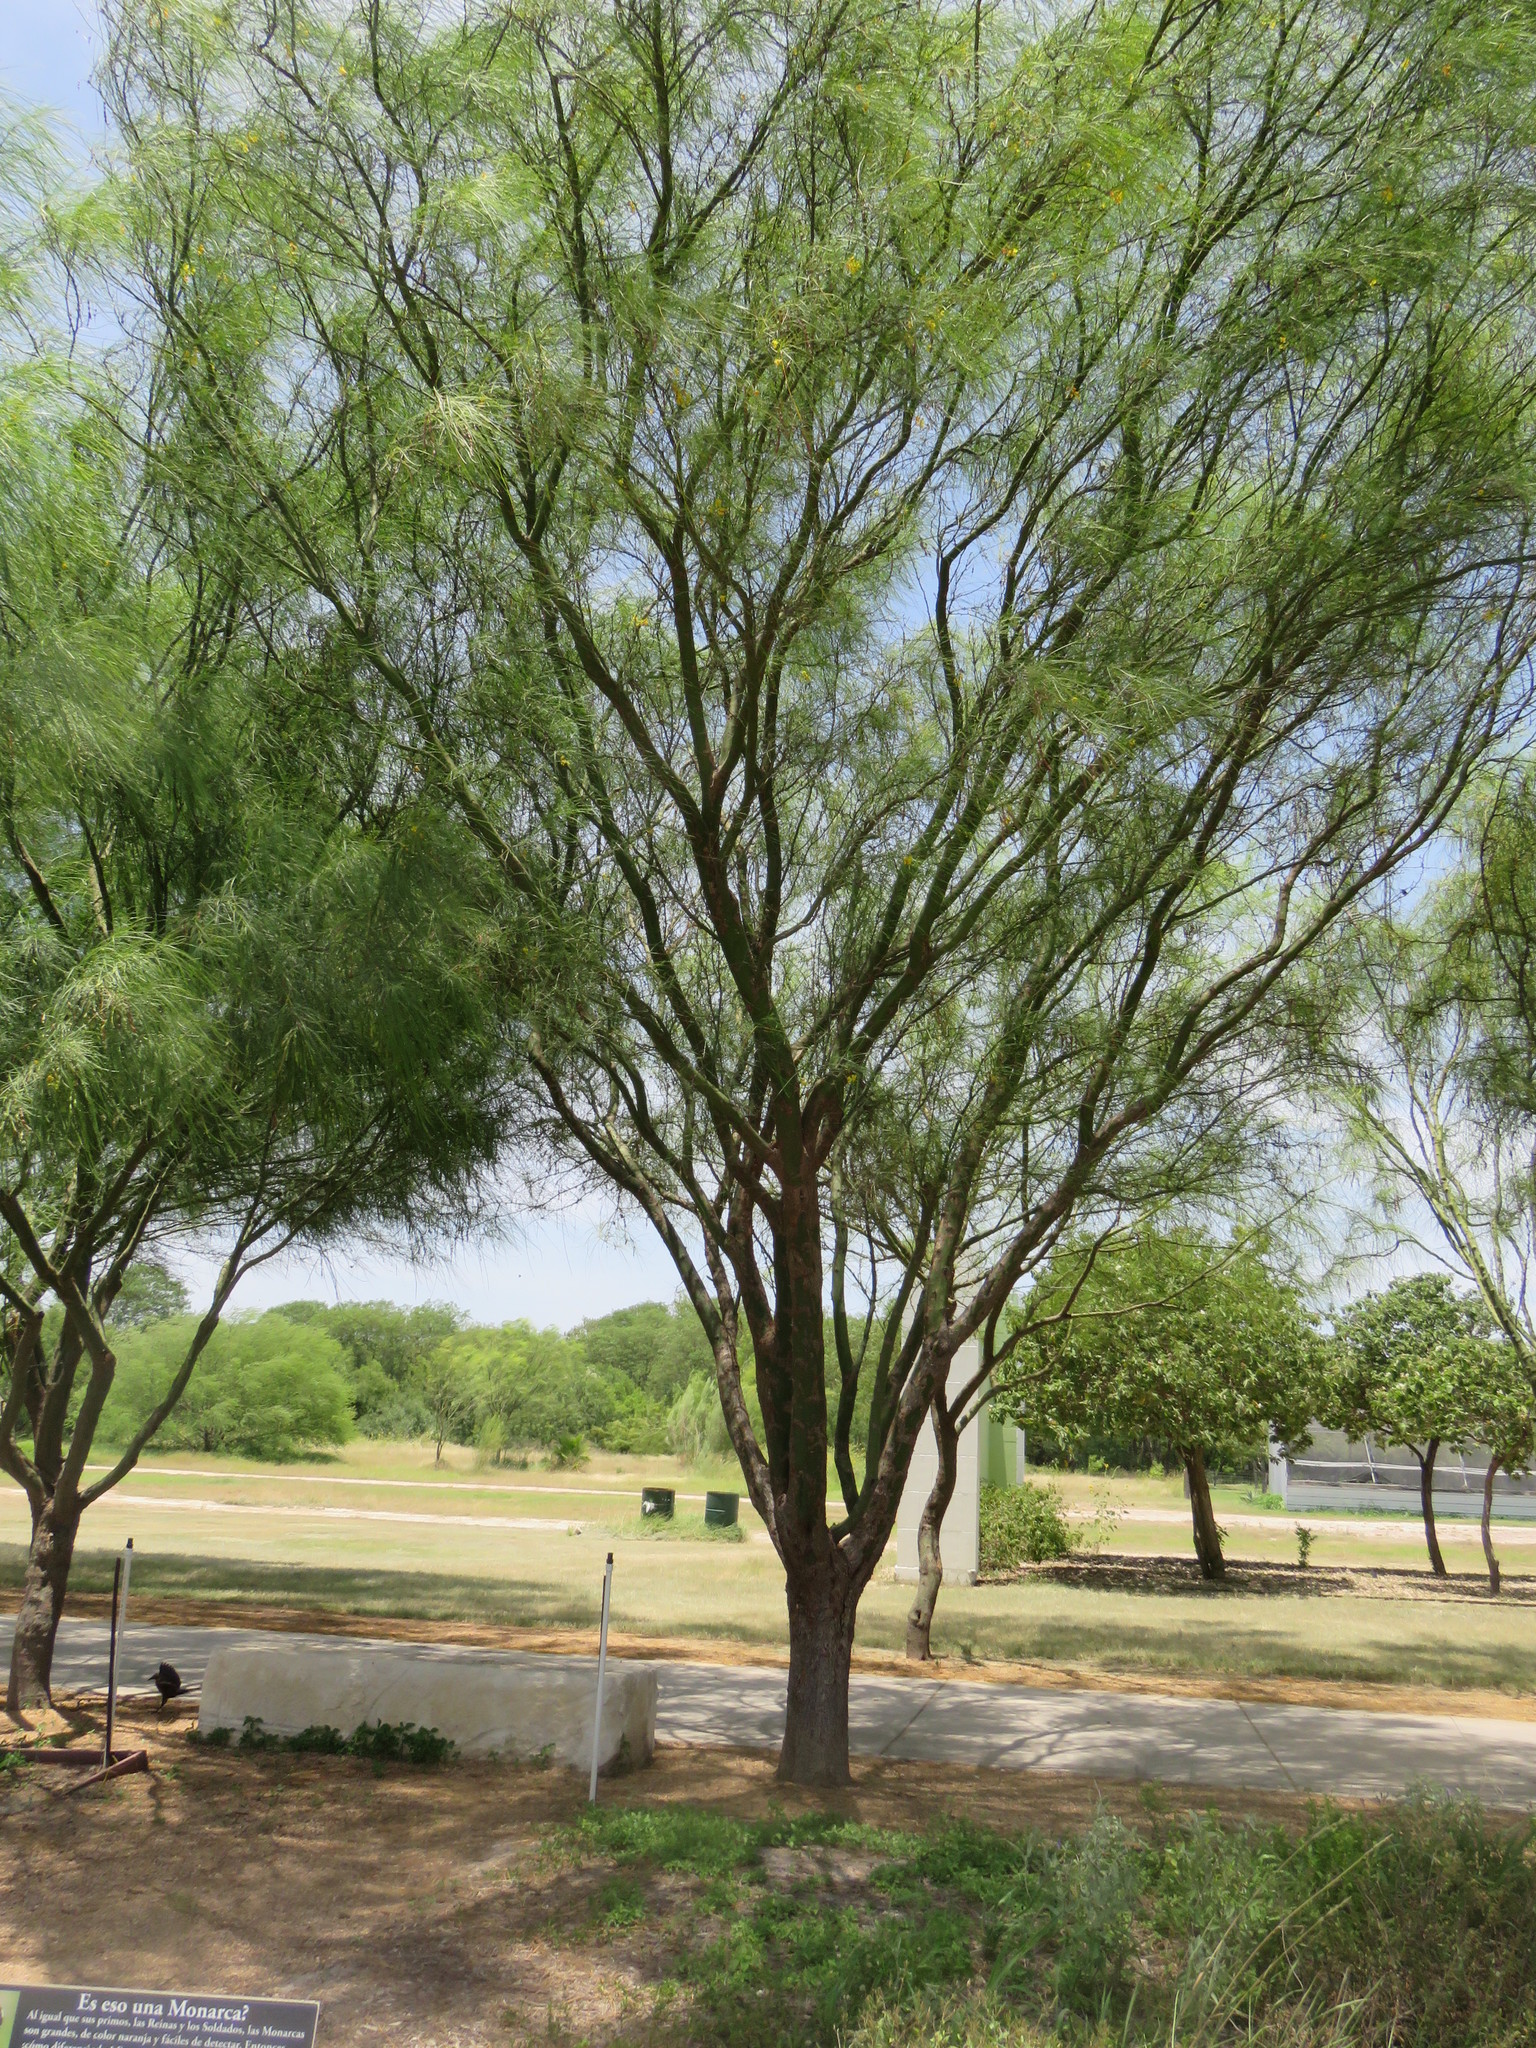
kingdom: Plantae
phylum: Tracheophyta
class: Magnoliopsida
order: Fabales
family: Fabaceae
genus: Parkinsonia
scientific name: Parkinsonia aculeata
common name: Jerusalem thorn
